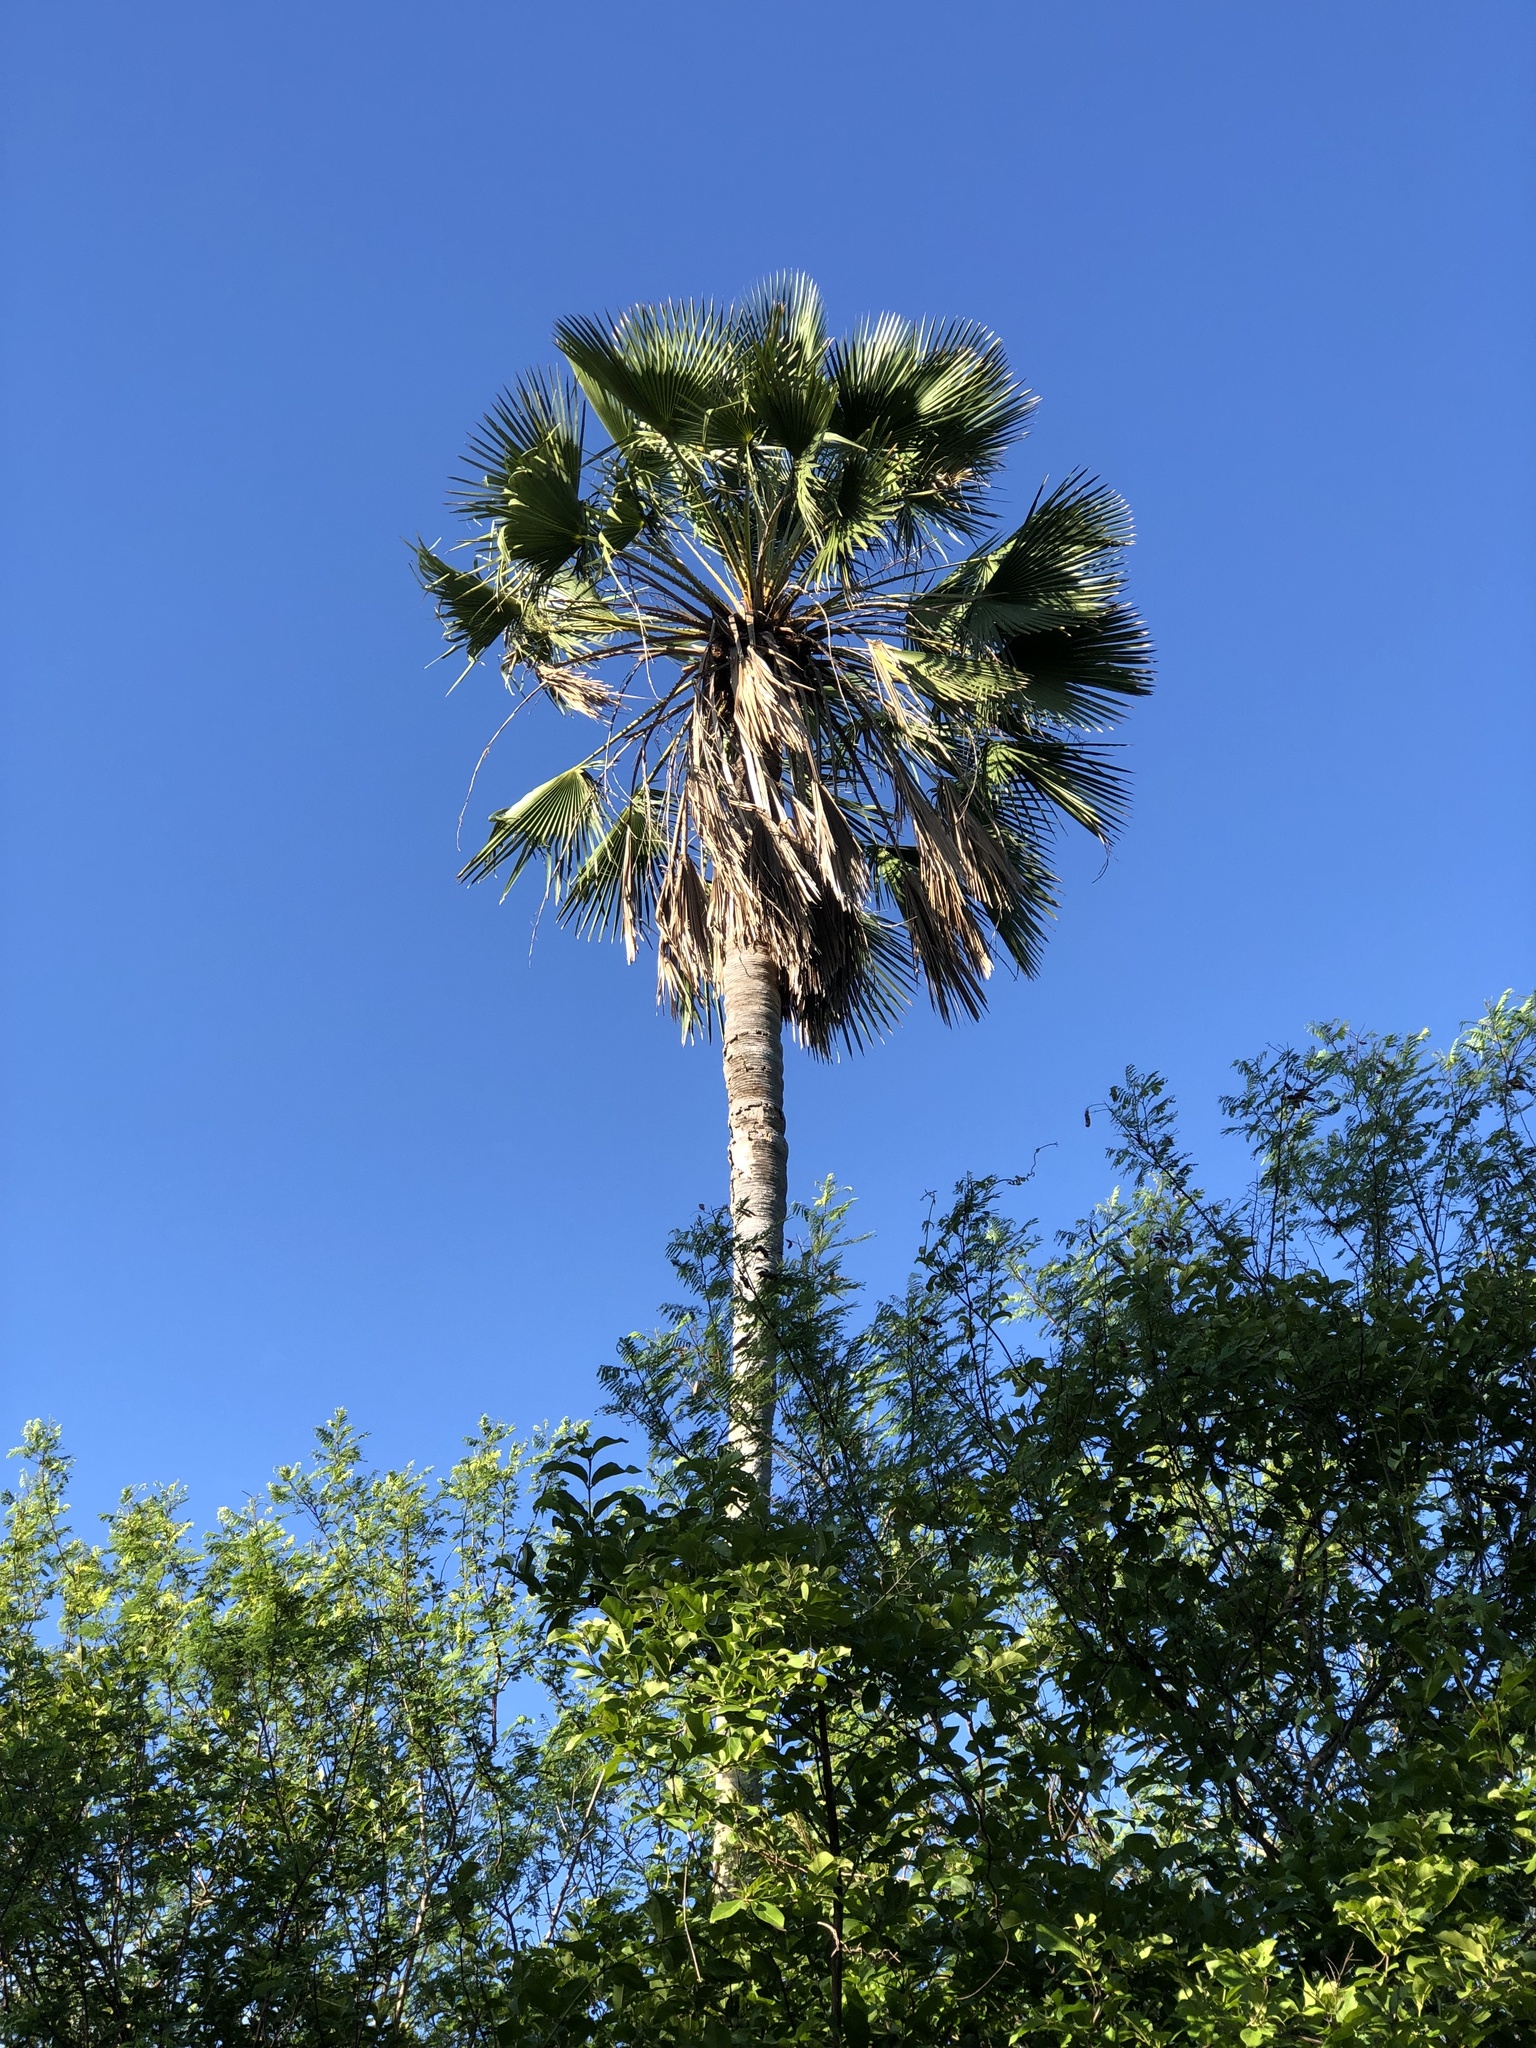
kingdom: Plantae
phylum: Tracheophyta
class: Liliopsida
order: Arecales
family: Arecaceae
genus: Copernicia
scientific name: Copernicia prunifera
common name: Carnauba palm
